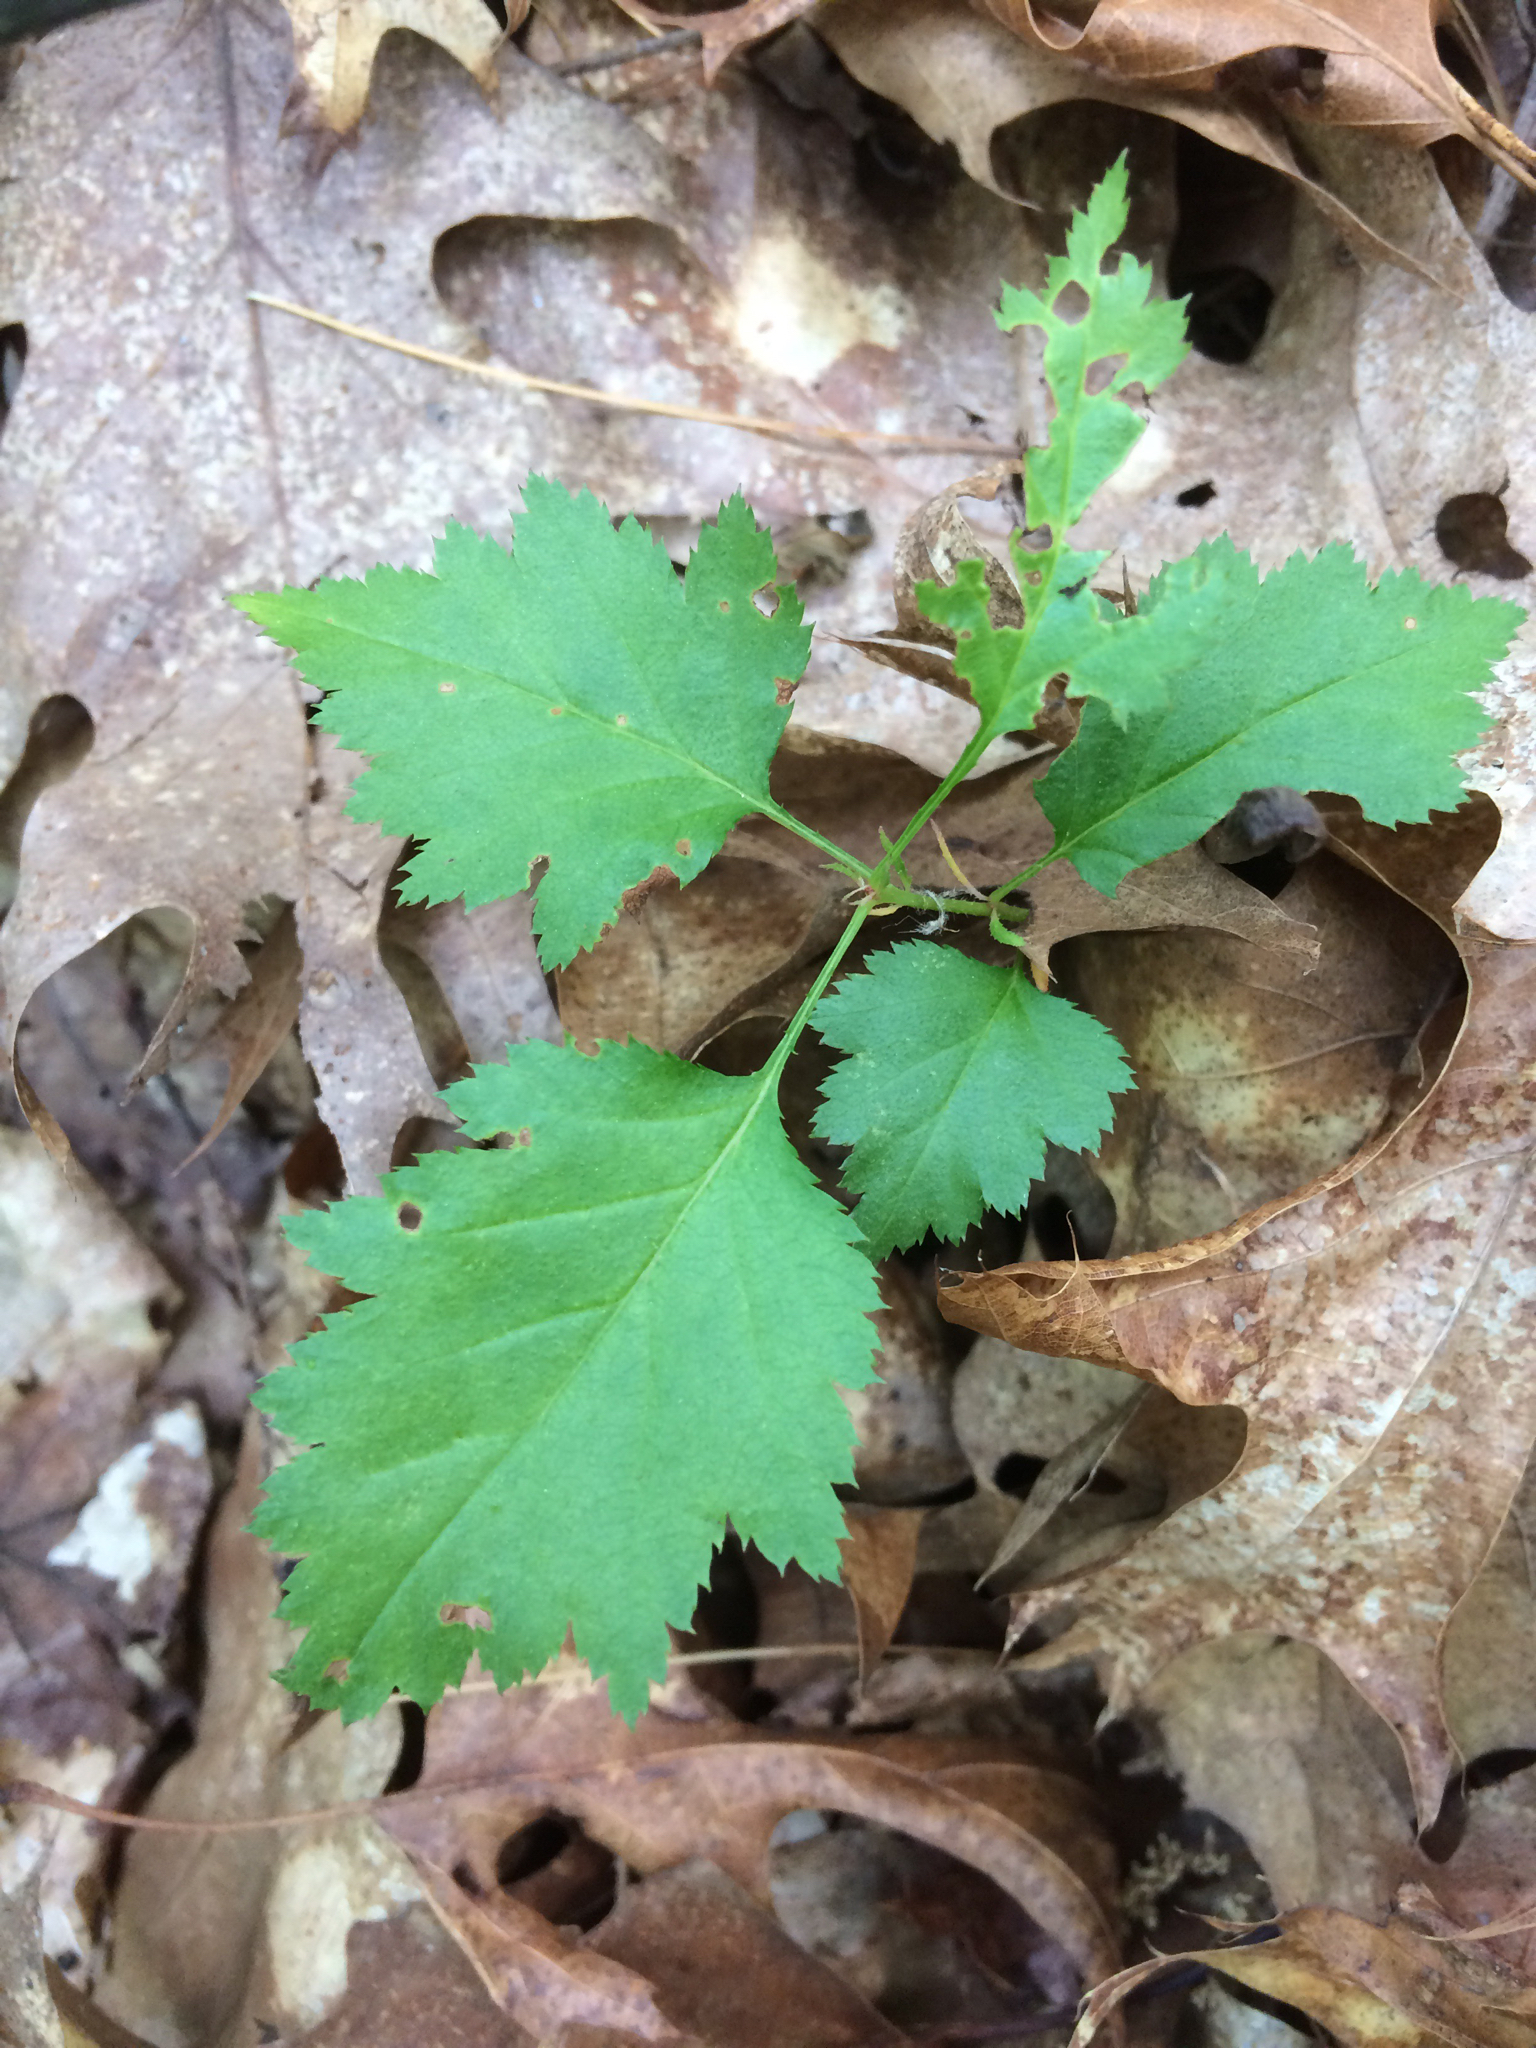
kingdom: Plantae
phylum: Tracheophyta
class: Magnoliopsida
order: Rosales
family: Rosaceae
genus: Crataegus
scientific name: Crataegus
